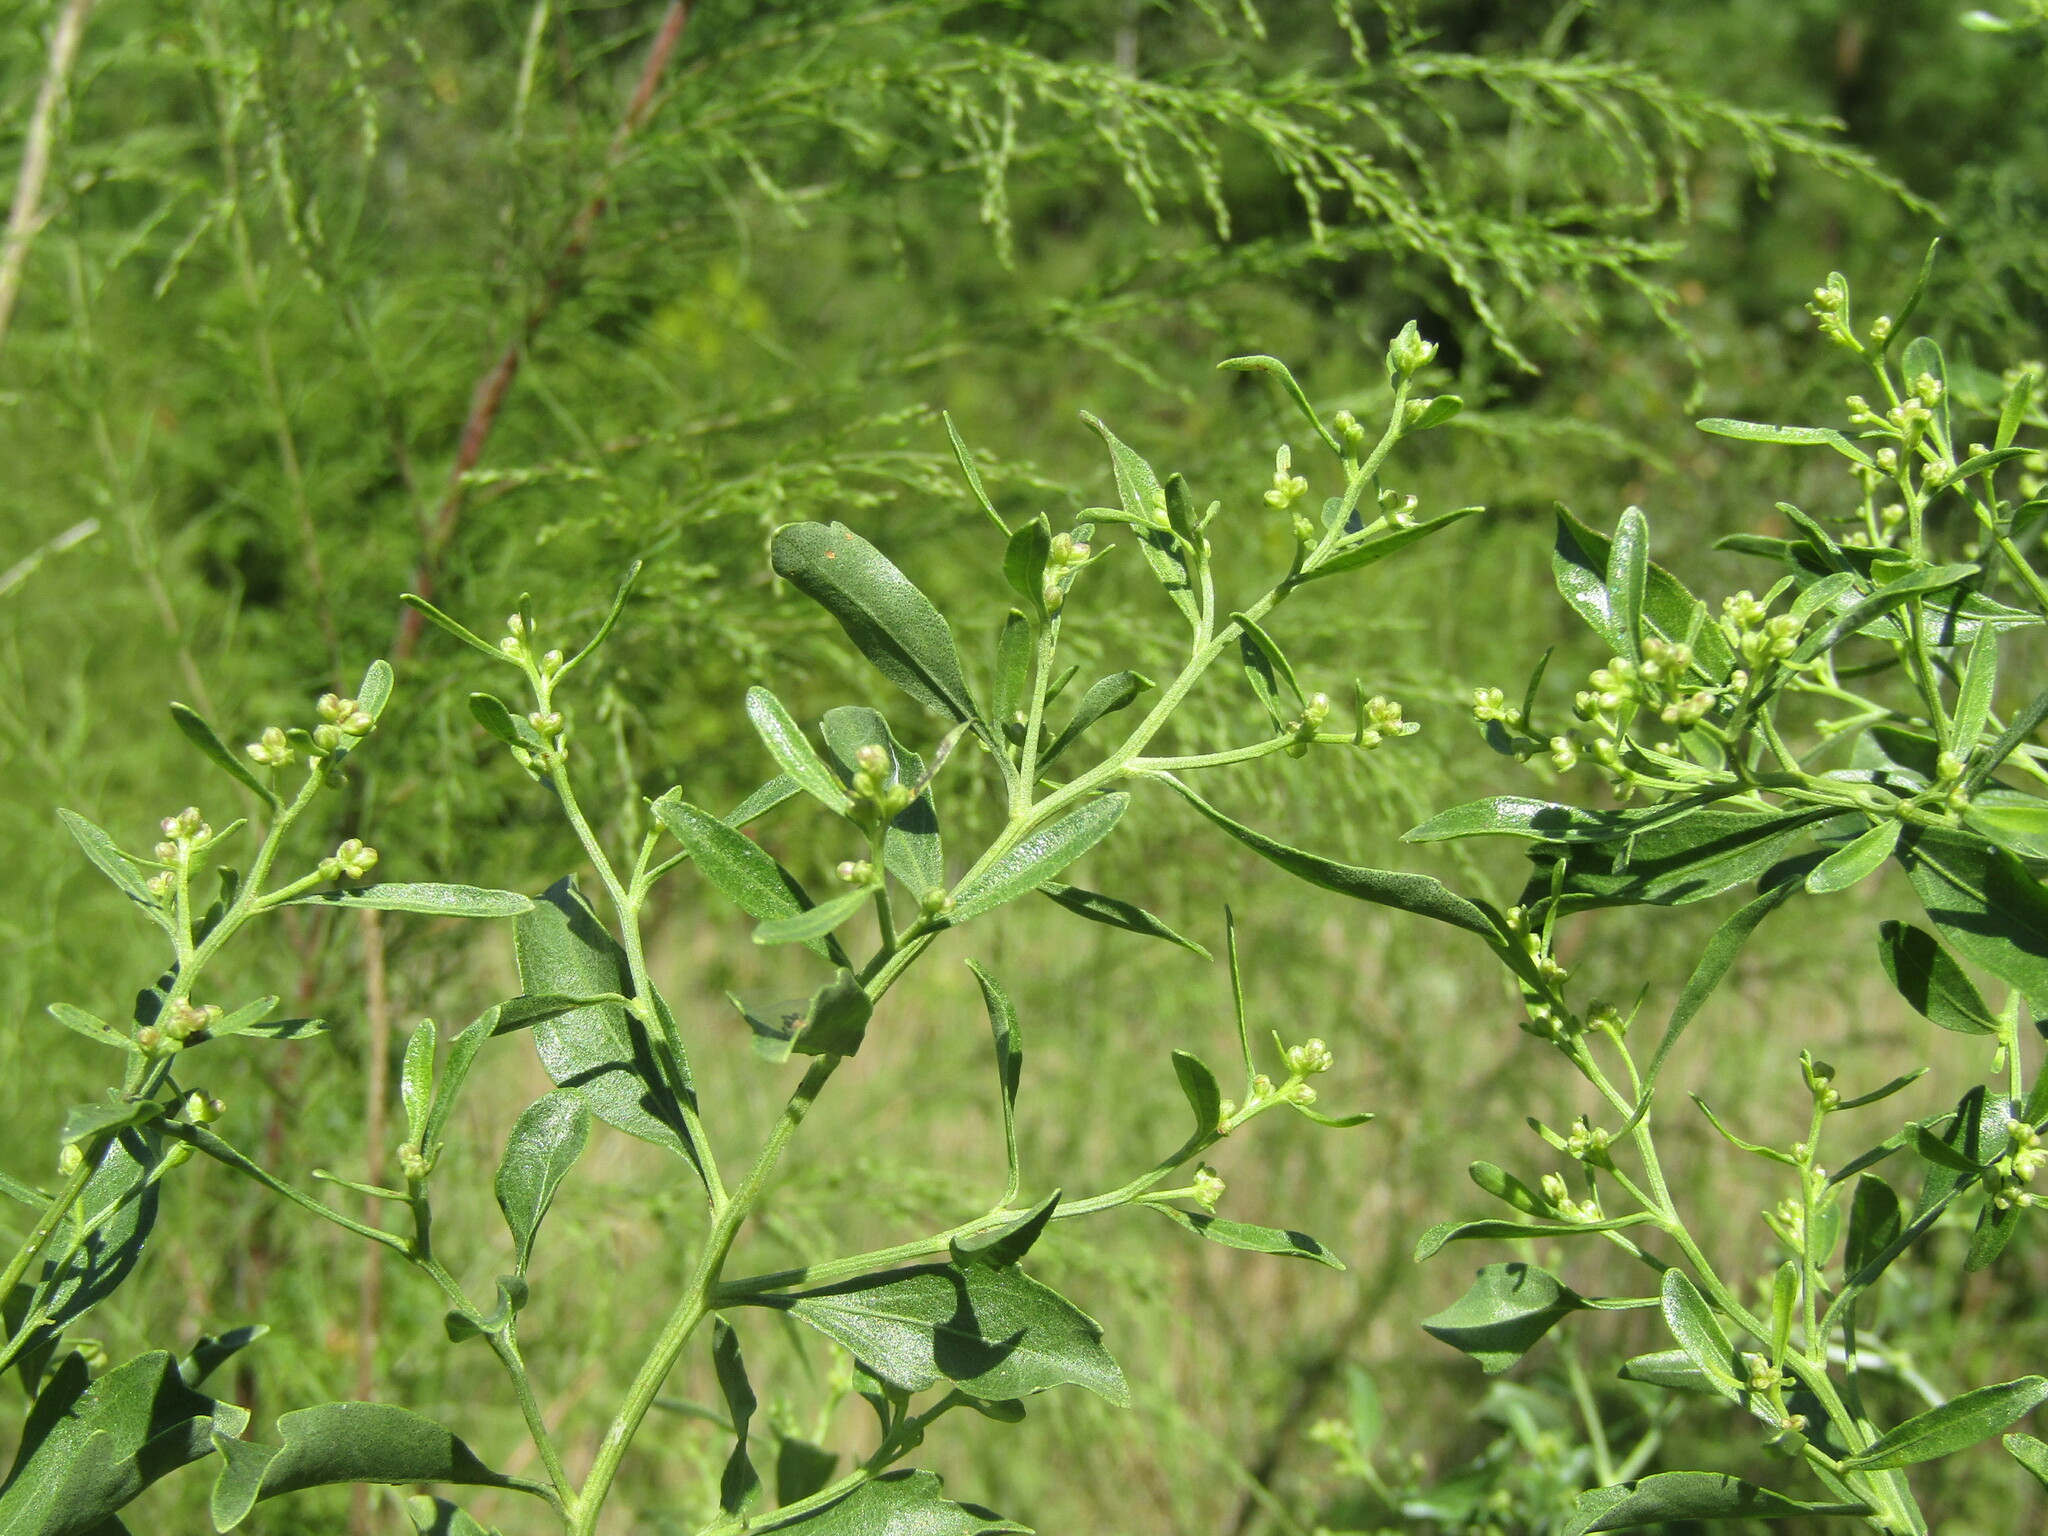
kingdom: Plantae
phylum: Tracheophyta
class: Magnoliopsida
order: Asterales
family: Asteraceae
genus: Baccharis
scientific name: Baccharis halimifolia
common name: Eastern baccharis
